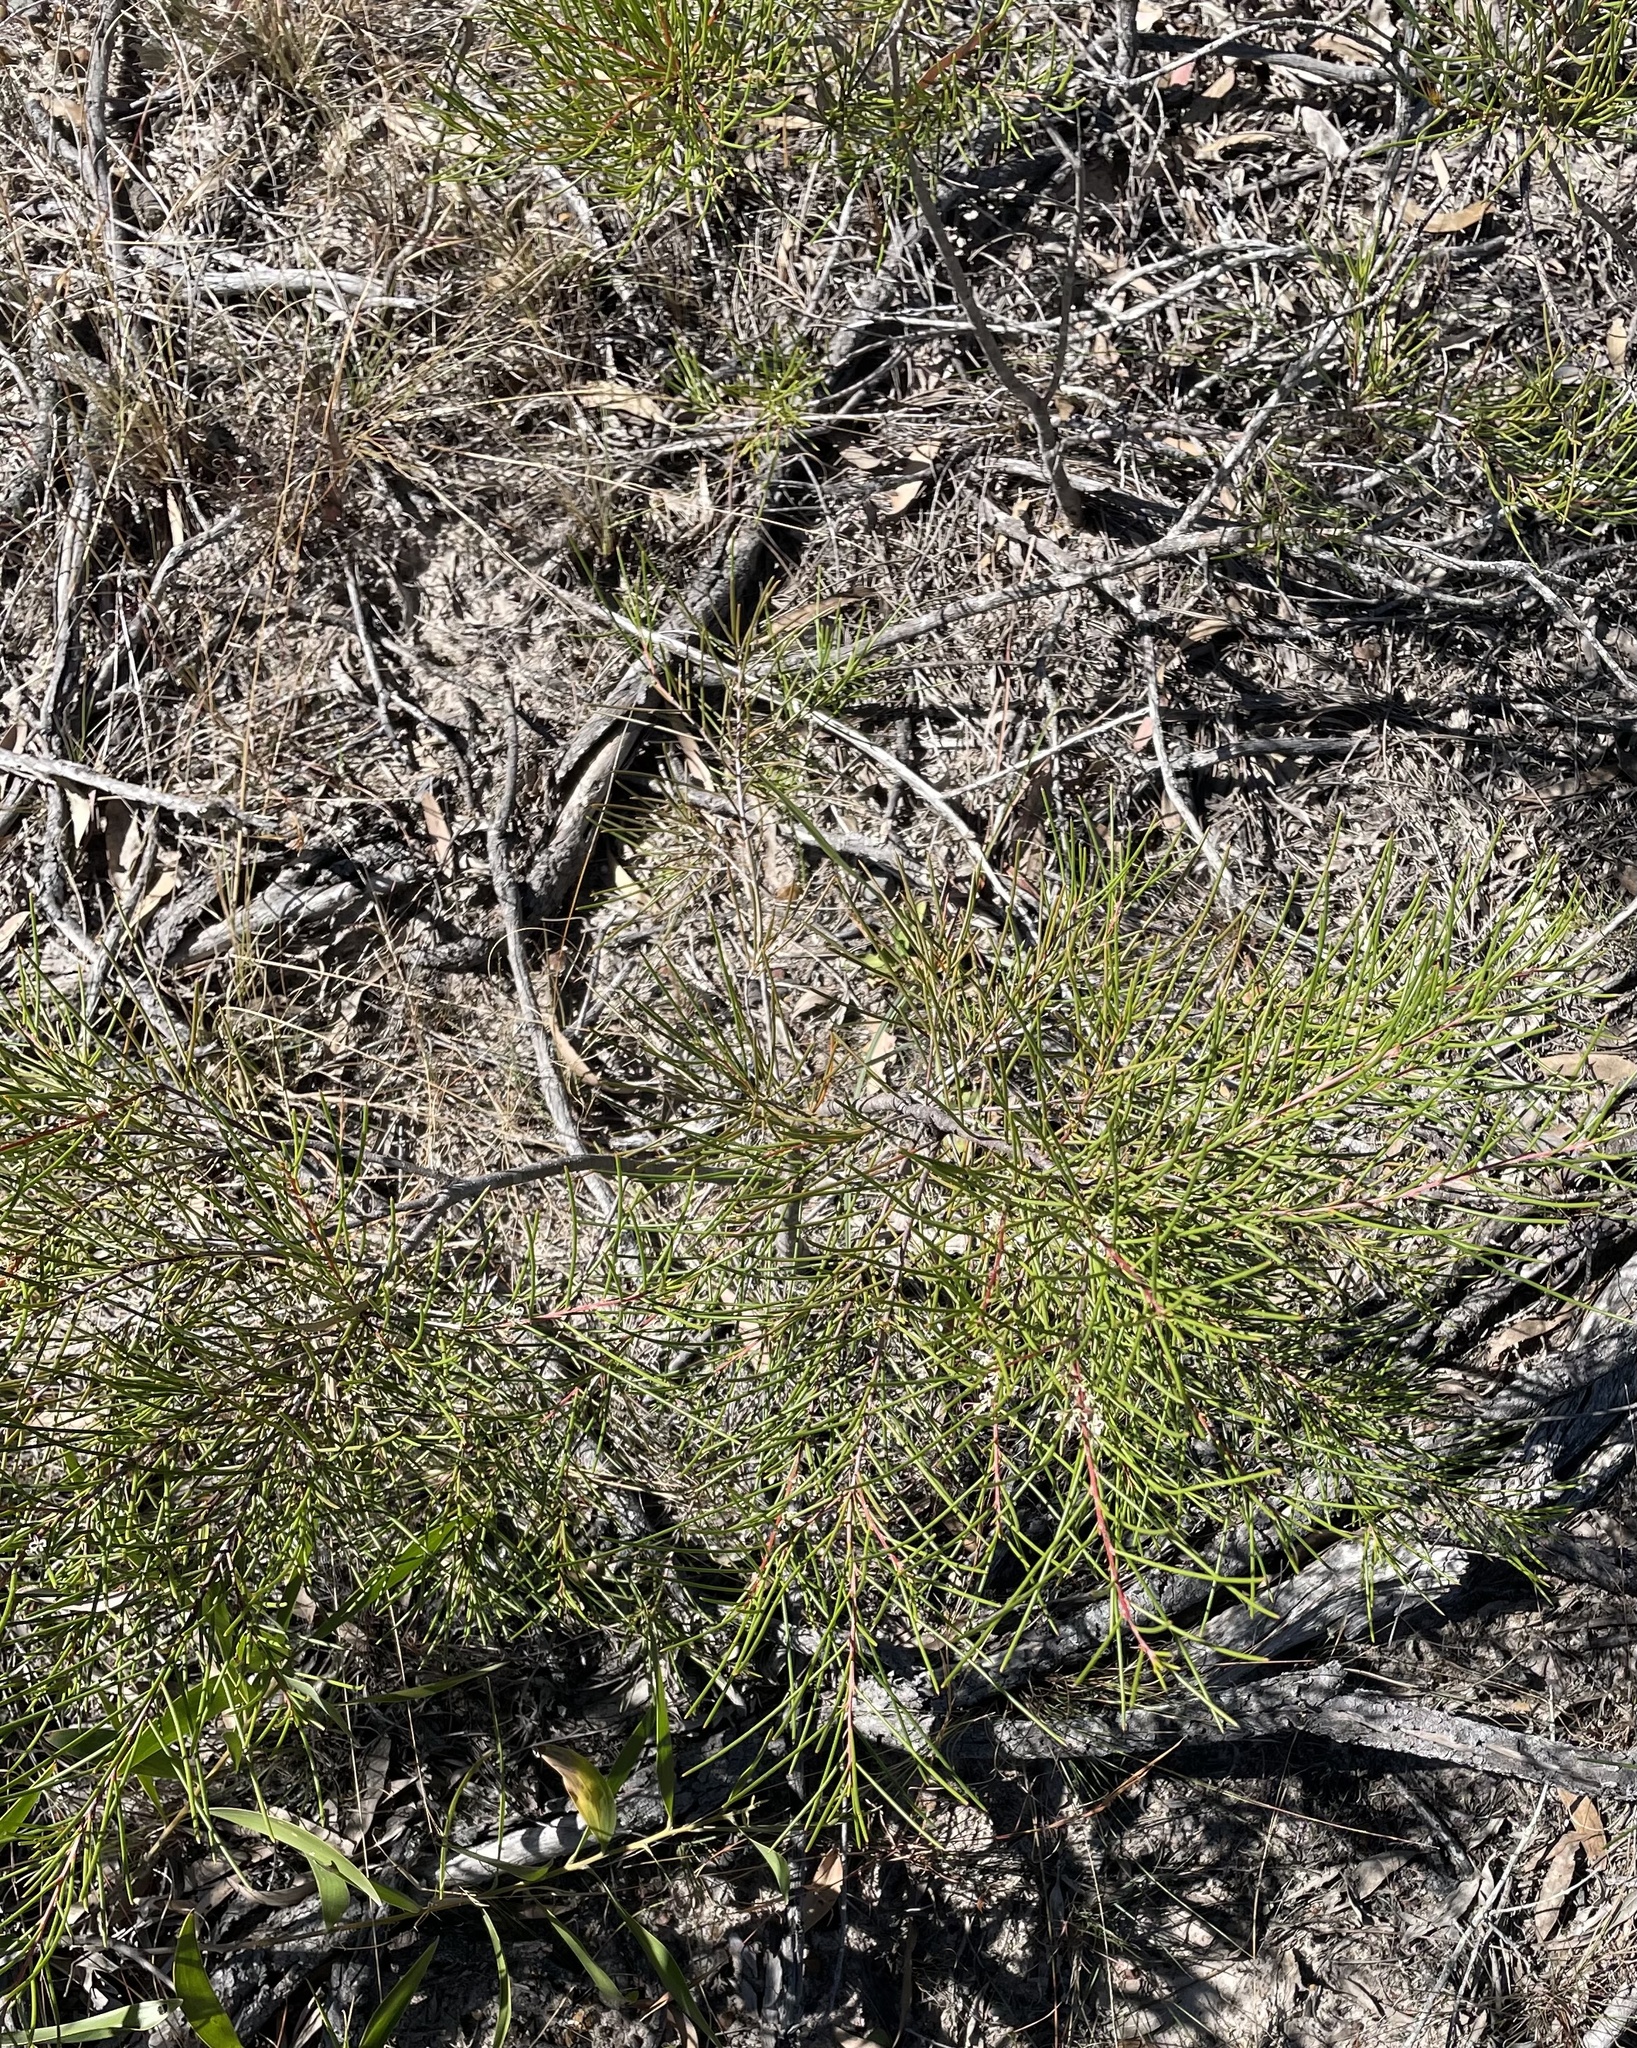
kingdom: Plantae
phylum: Tracheophyta
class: Magnoliopsida
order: Proteales
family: Proteaceae
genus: Hakea
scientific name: Hakea actites
